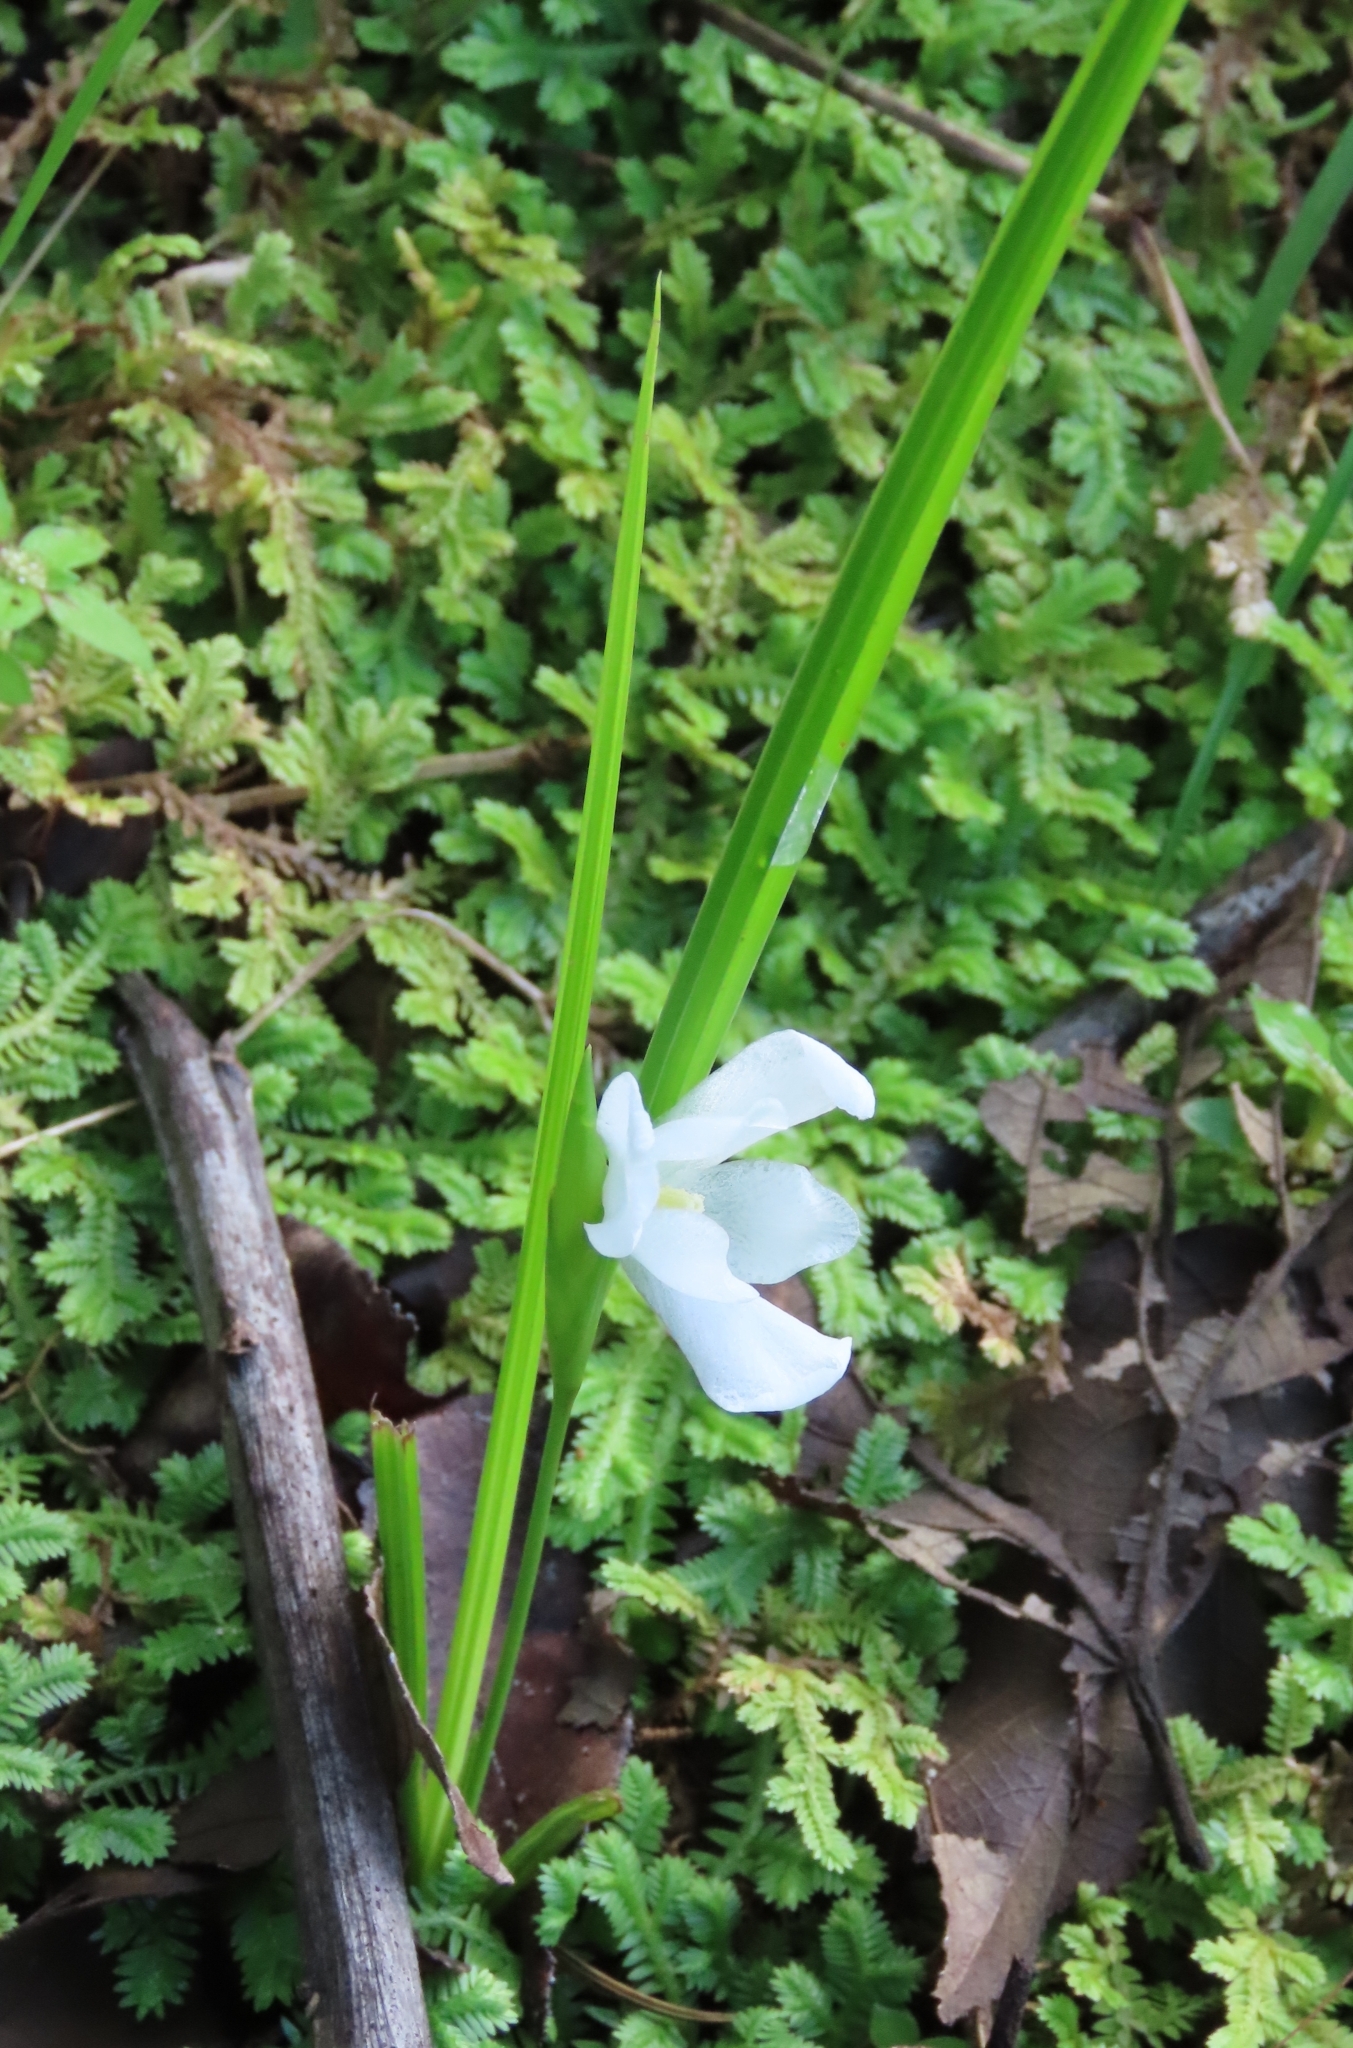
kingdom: Plantae
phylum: Tracheophyta
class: Liliopsida
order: Asparagales
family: Iridaceae
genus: Cipura
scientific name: Cipura campanulata
